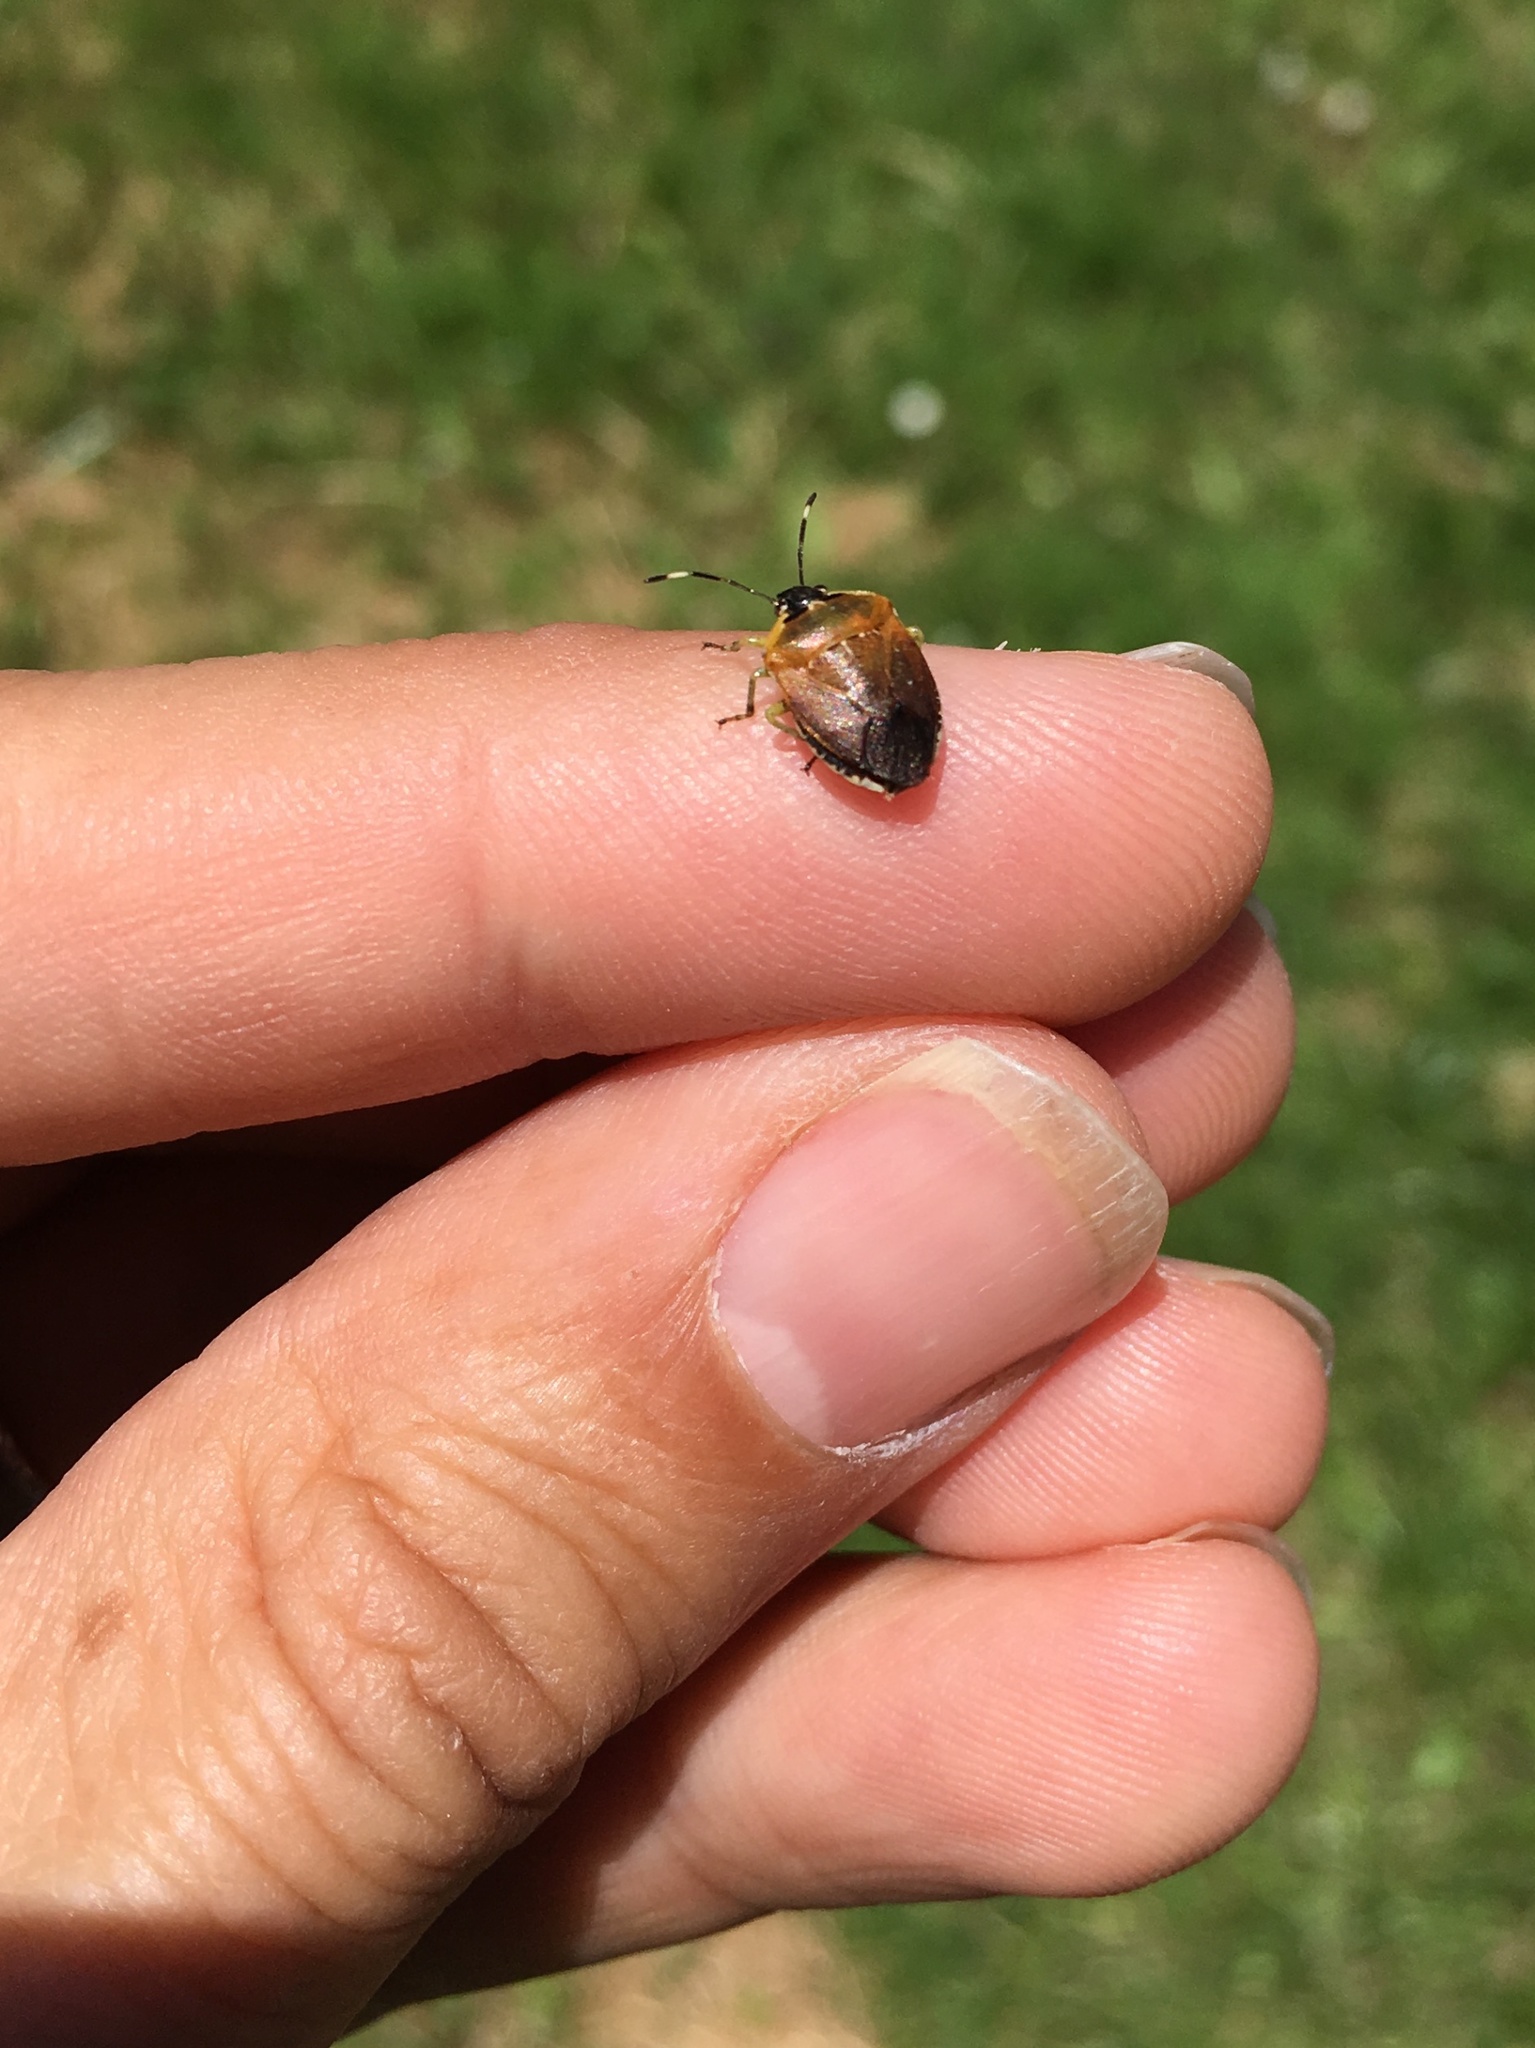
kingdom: Animalia
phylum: Arthropoda
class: Insecta
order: Hemiptera
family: Pentatomidae
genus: Monteithiella
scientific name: Monteithiella
